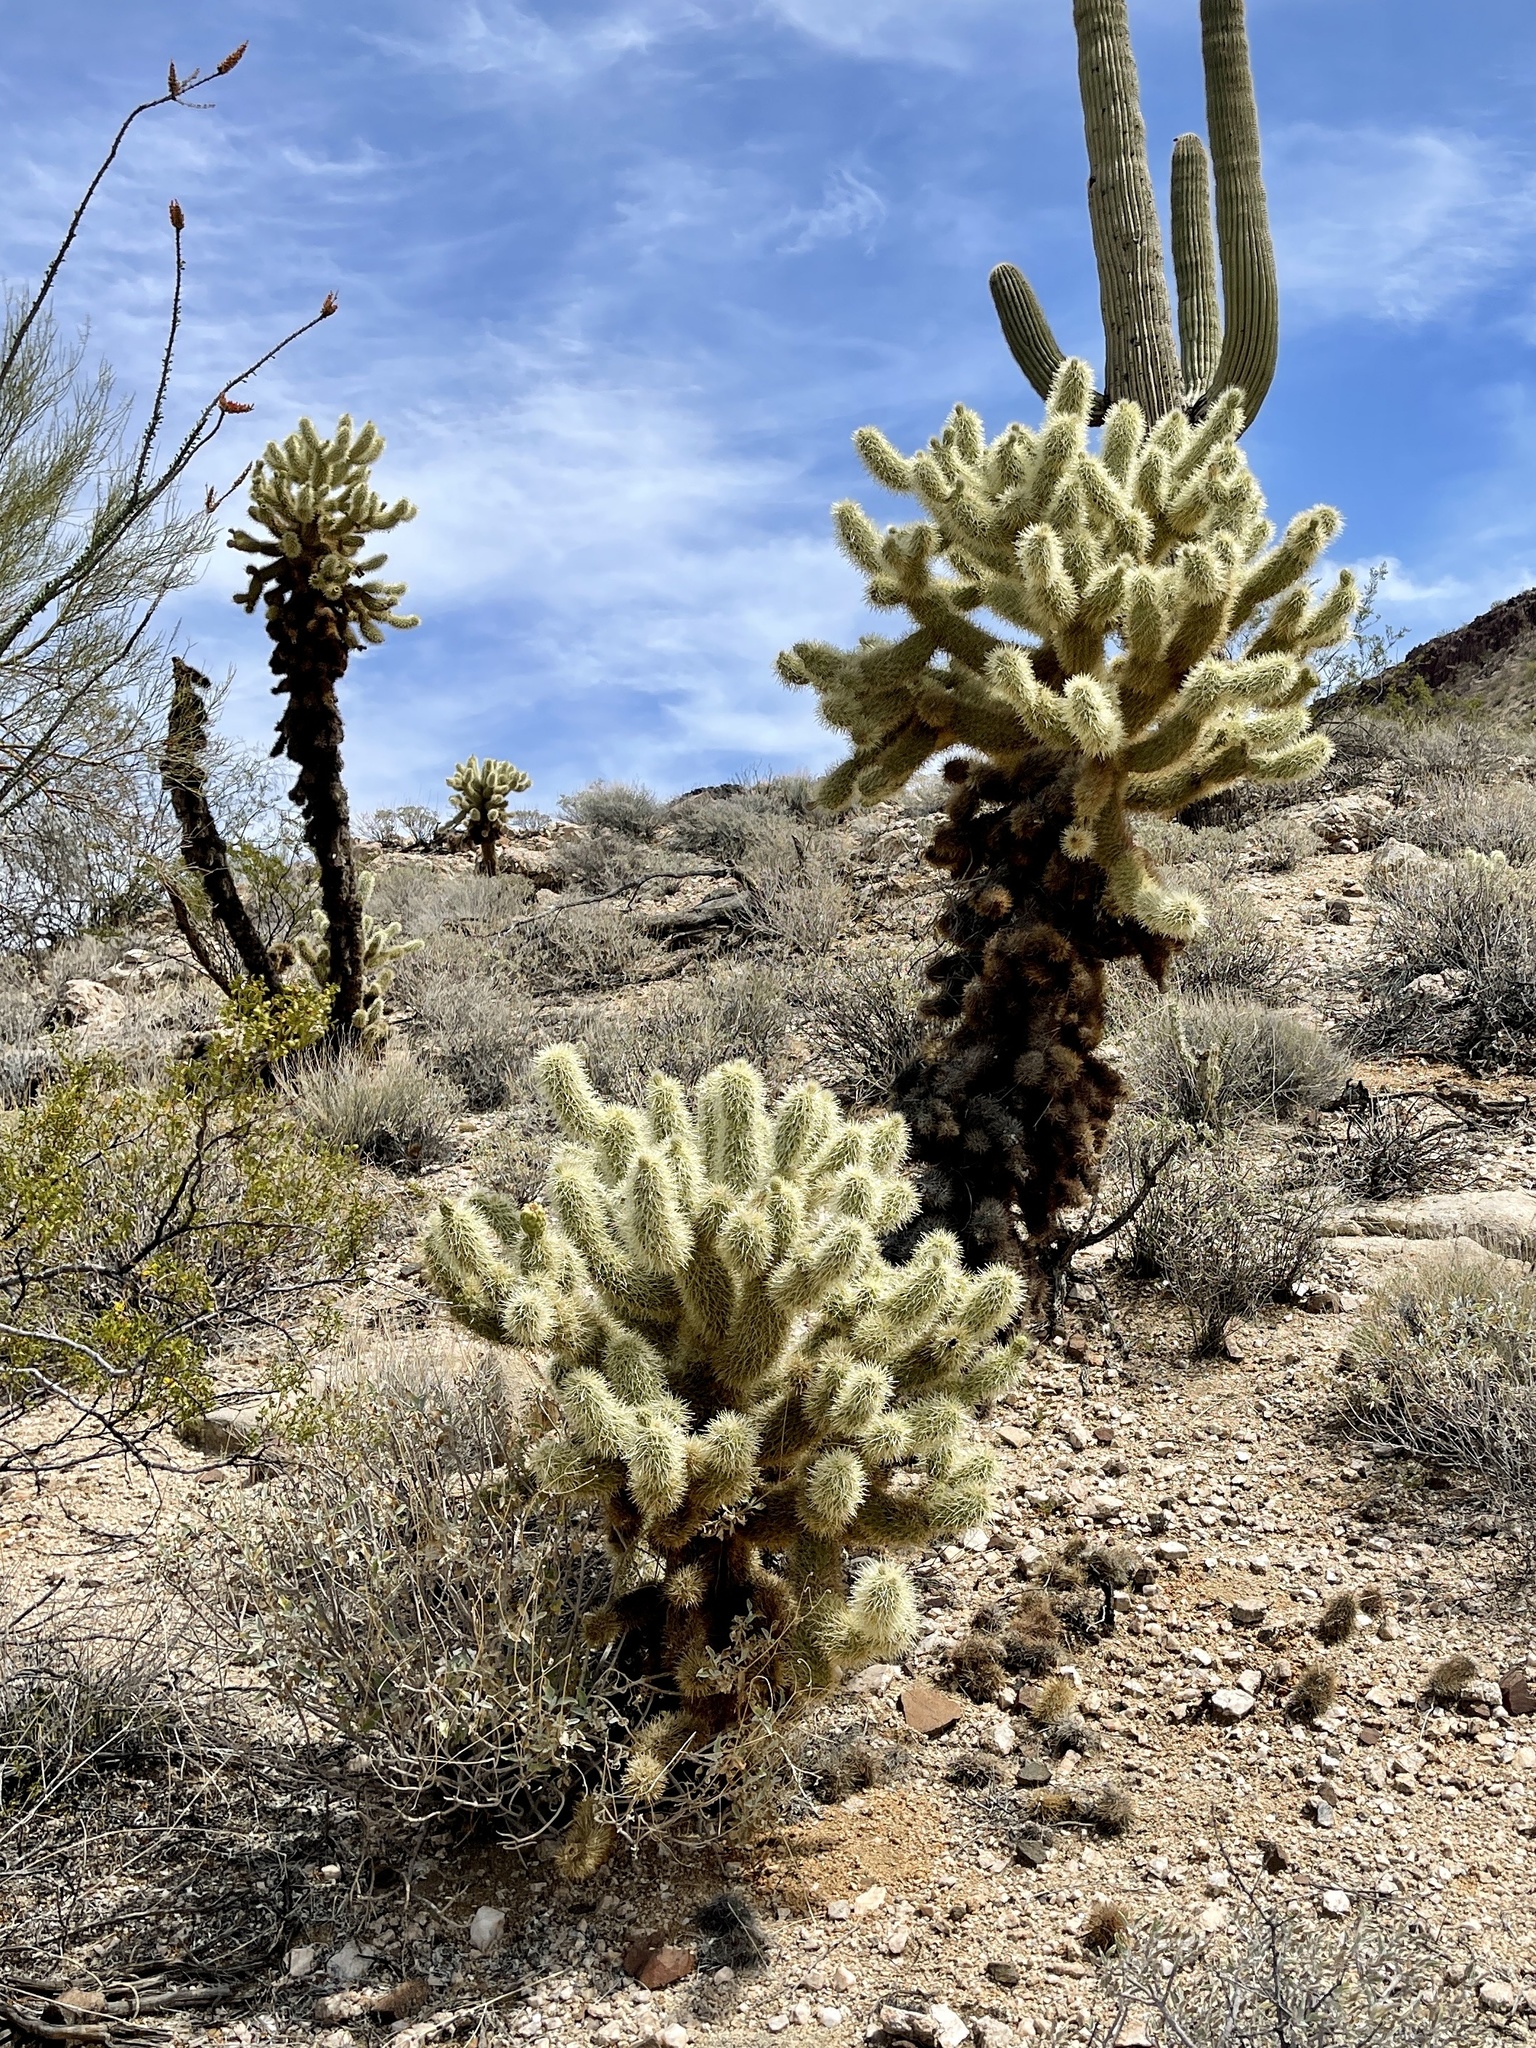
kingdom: Plantae
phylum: Tracheophyta
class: Magnoliopsida
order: Caryophyllales
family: Cactaceae
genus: Cylindropuntia
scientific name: Cylindropuntia fosbergii
